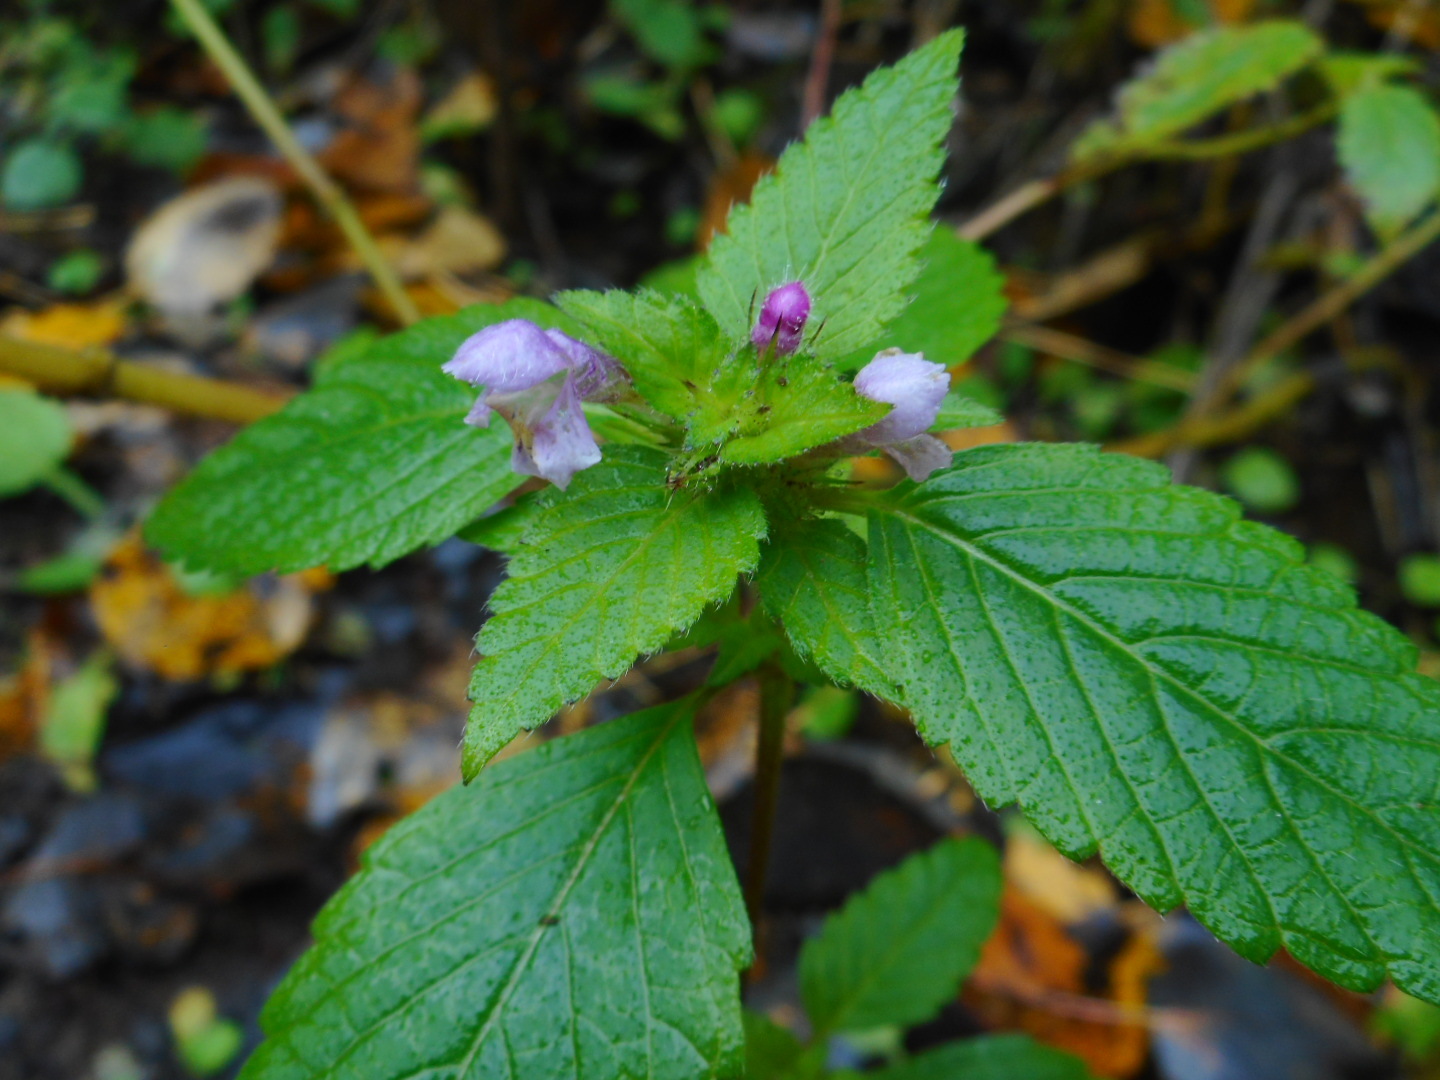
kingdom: Plantae
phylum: Tracheophyta
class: Magnoliopsida
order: Lamiales
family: Lamiaceae
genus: Galeopsis
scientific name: Galeopsis tetrahit
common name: Common hemp-nettle
